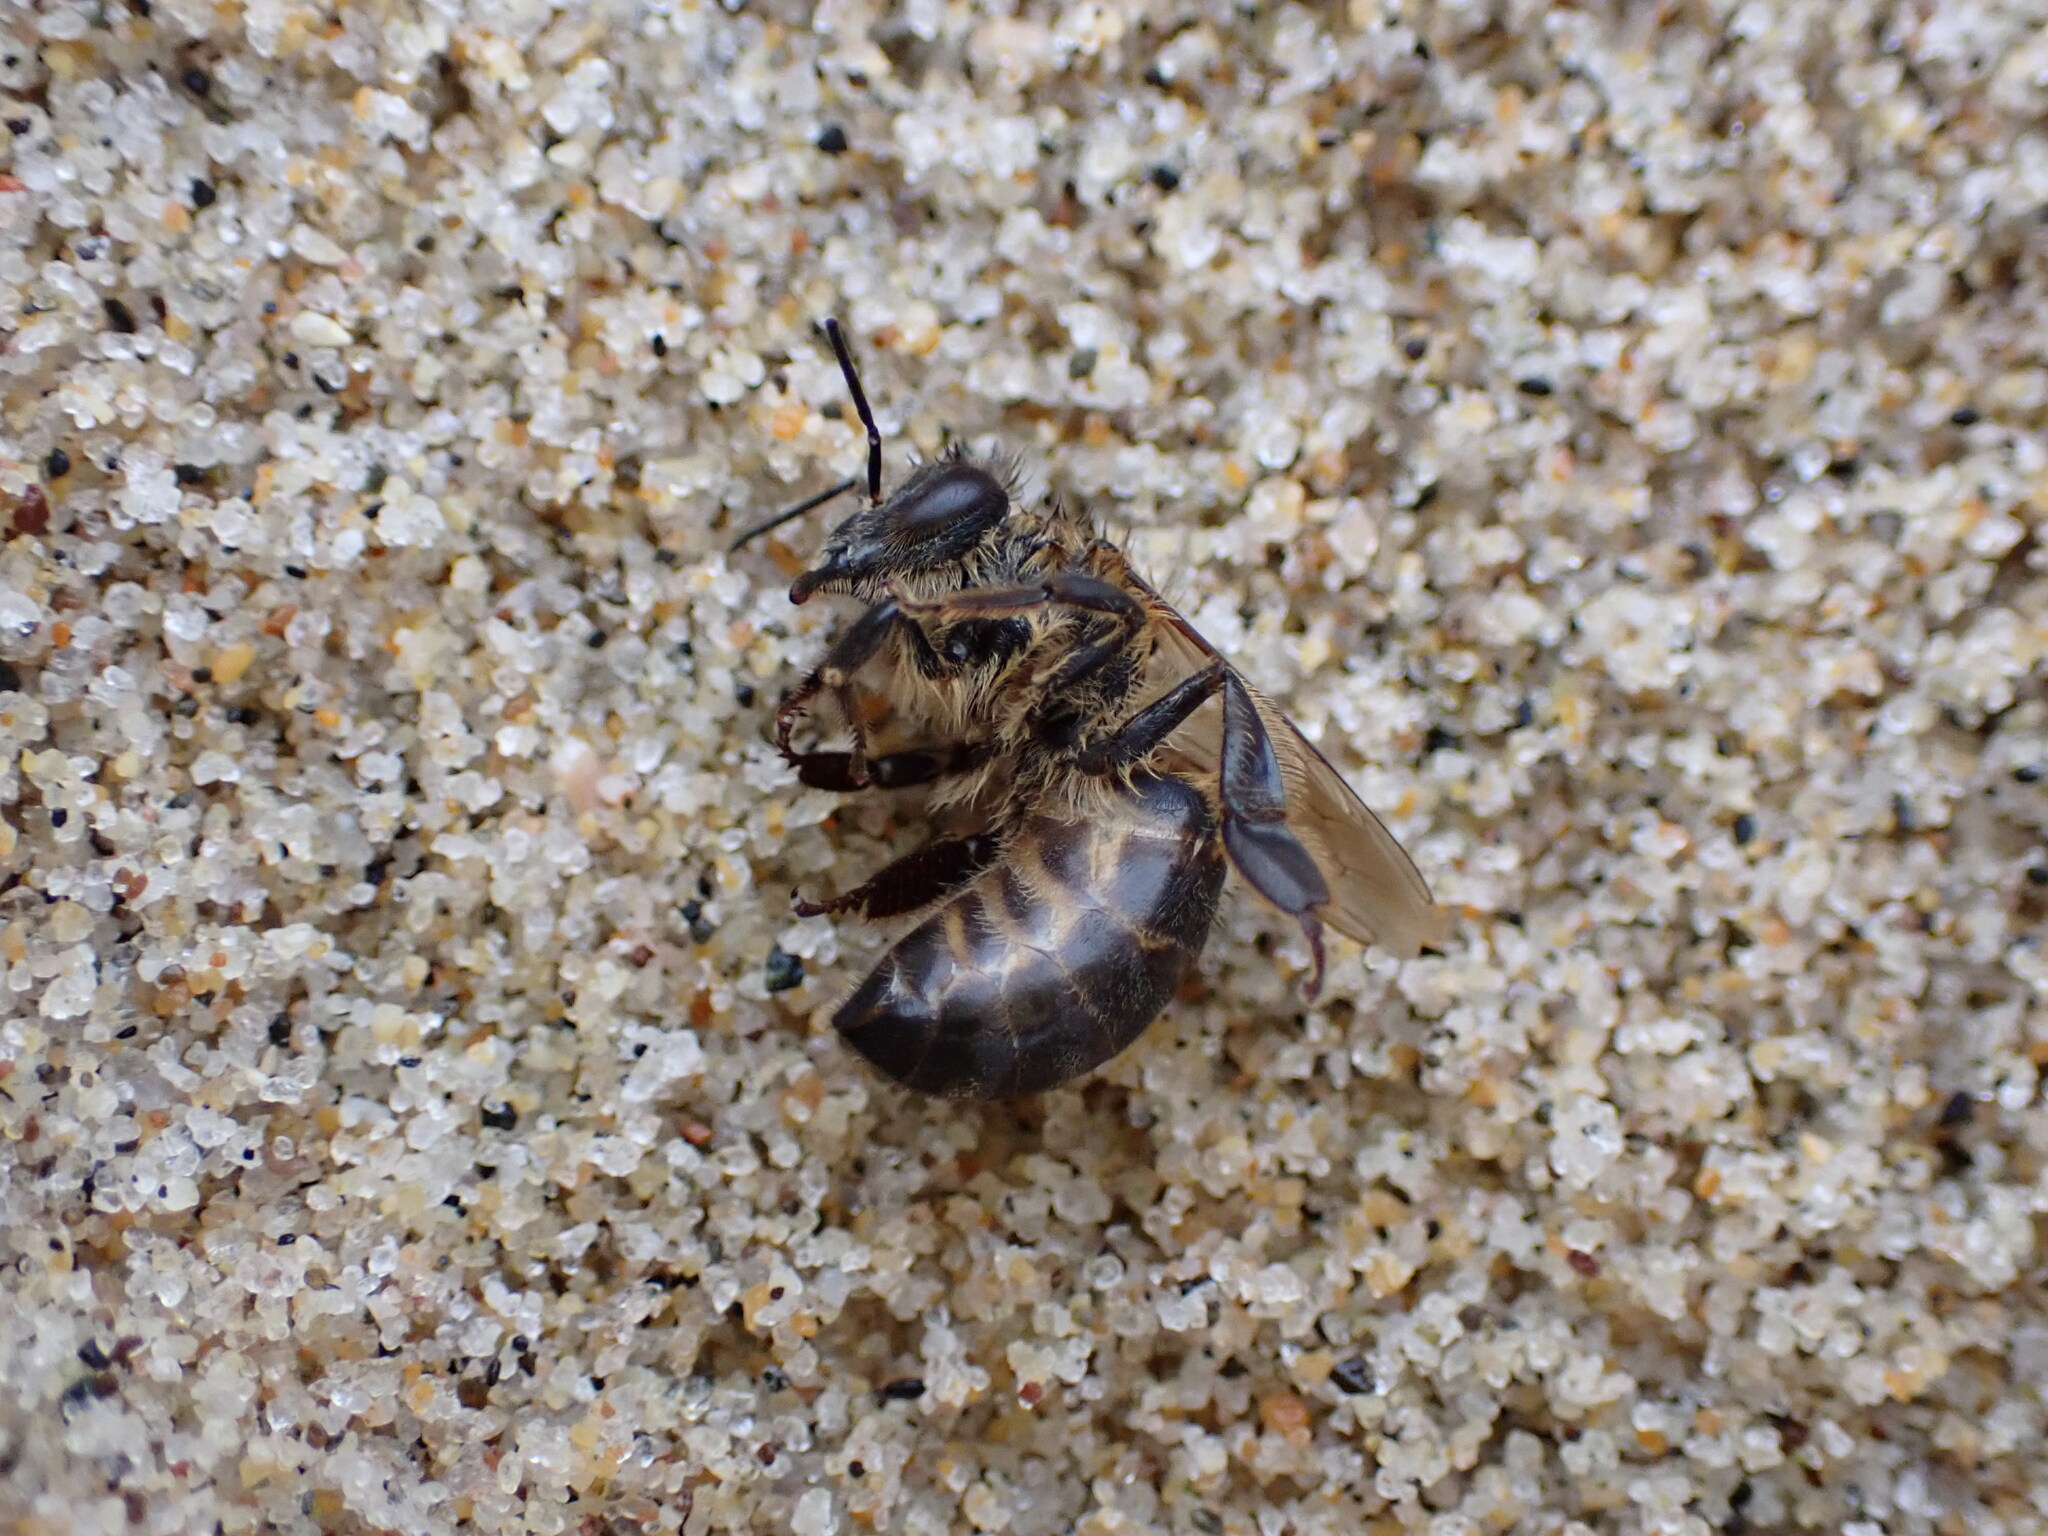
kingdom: Animalia
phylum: Arthropoda
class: Insecta
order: Hymenoptera
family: Apidae
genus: Apis
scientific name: Apis mellifera
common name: Honey bee
